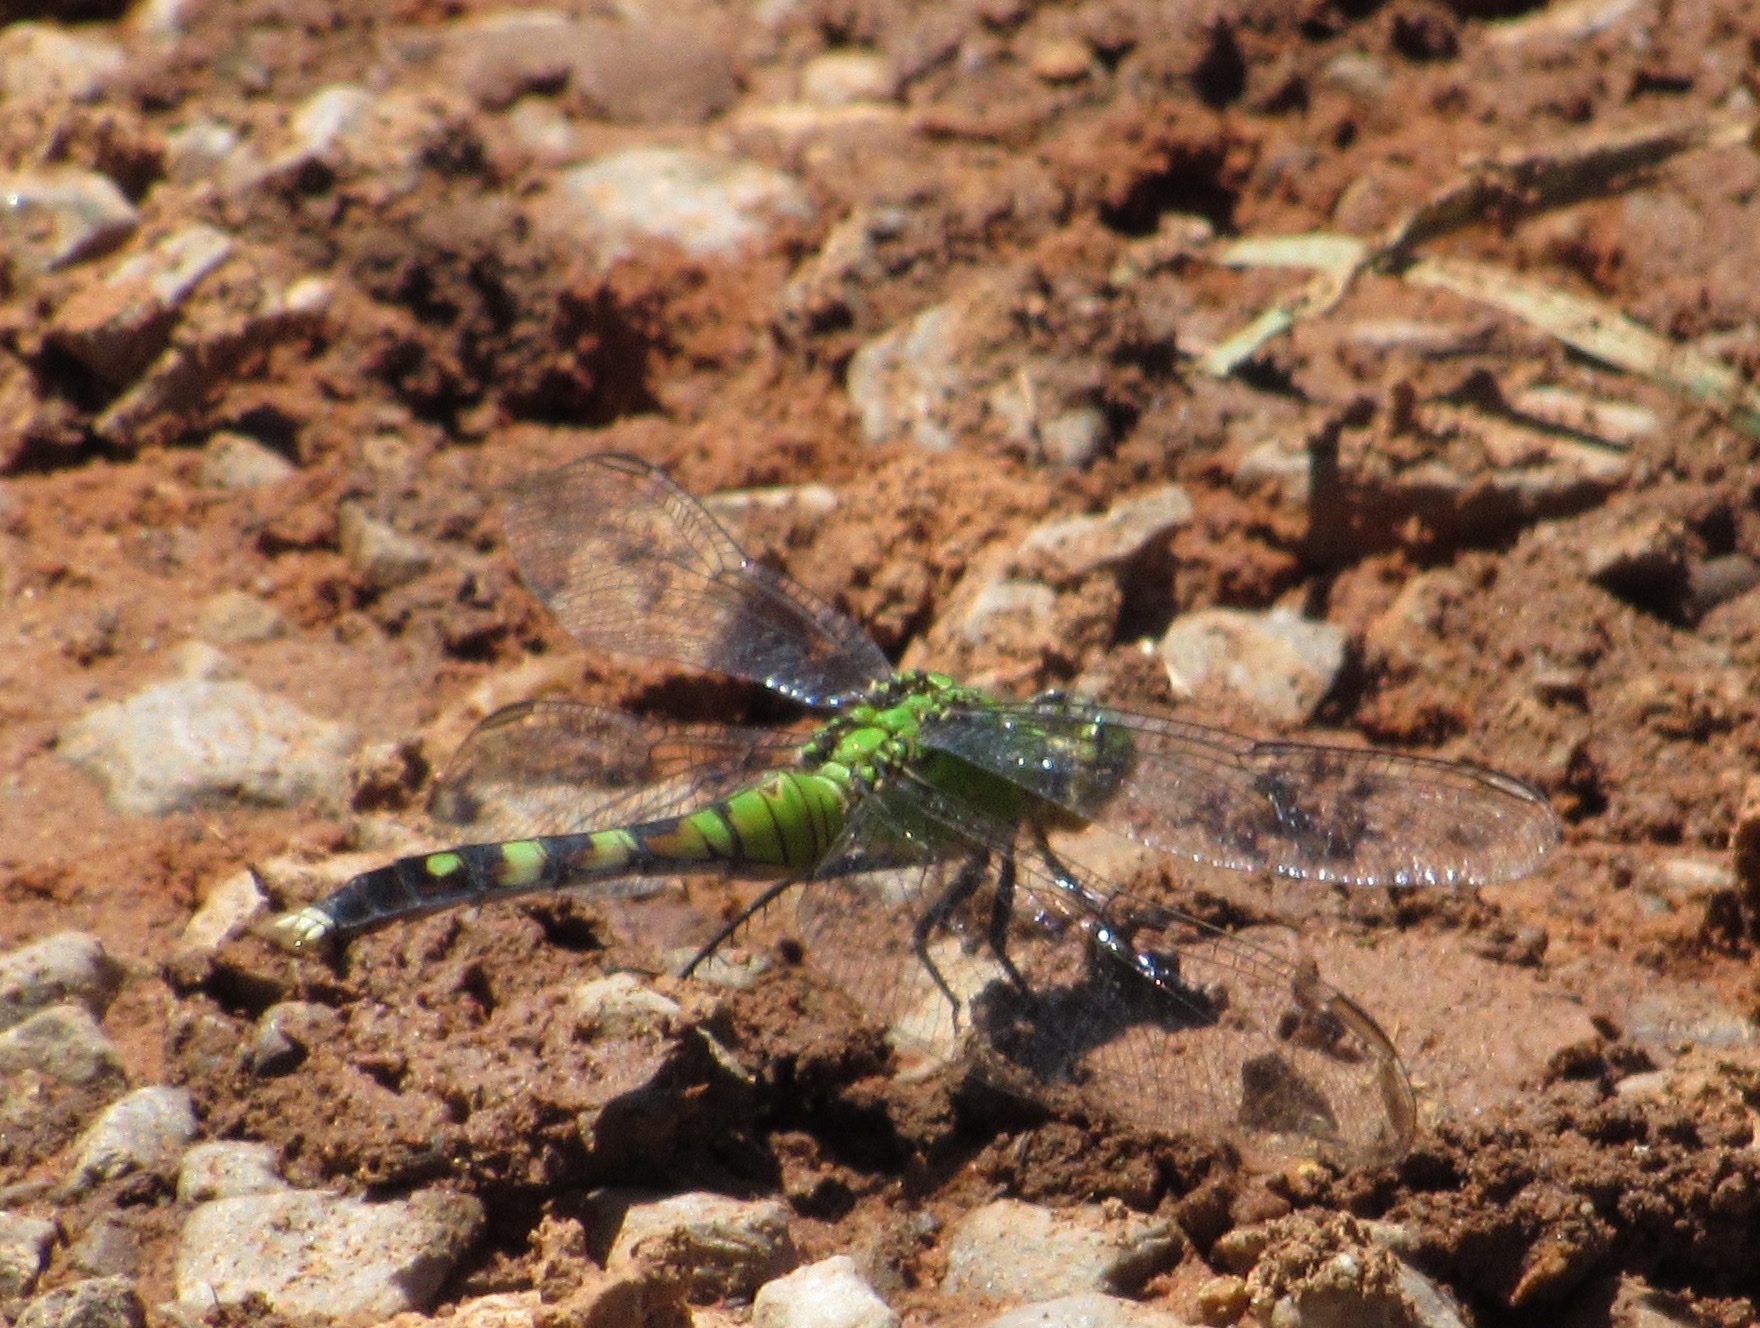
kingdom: Animalia
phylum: Arthropoda
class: Insecta
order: Odonata
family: Libellulidae
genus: Erythemis
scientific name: Erythemis simplicicollis
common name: Eastern pondhawk
